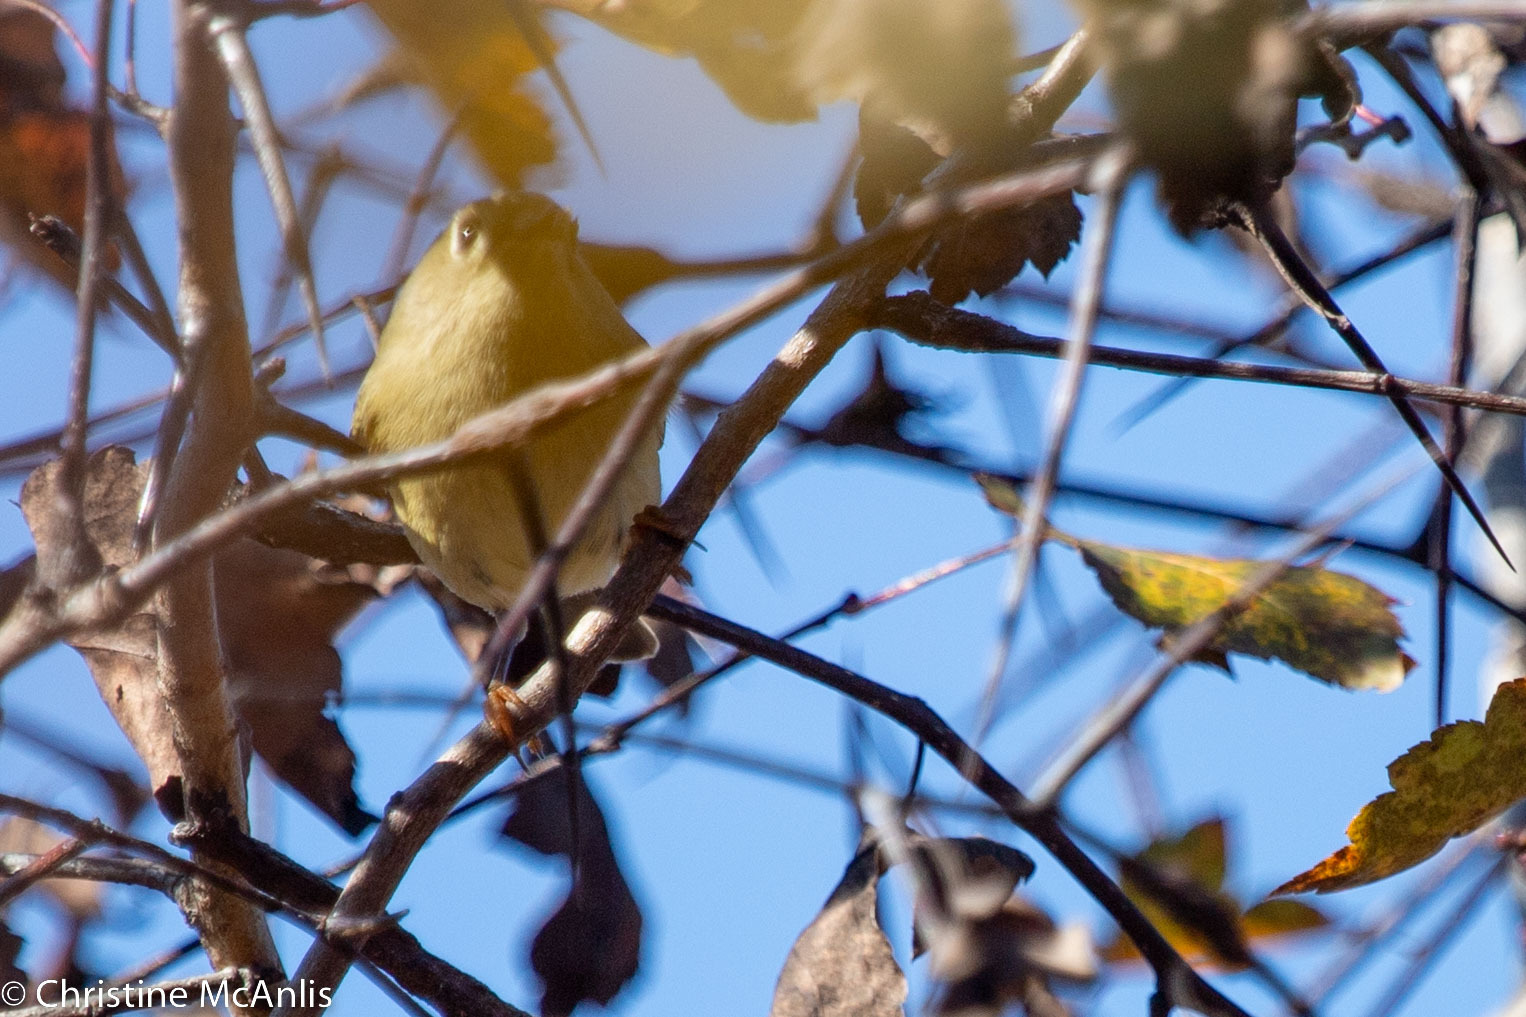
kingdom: Animalia
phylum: Chordata
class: Aves
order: Passeriformes
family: Regulidae
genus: Regulus
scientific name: Regulus calendula
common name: Ruby-crowned kinglet
